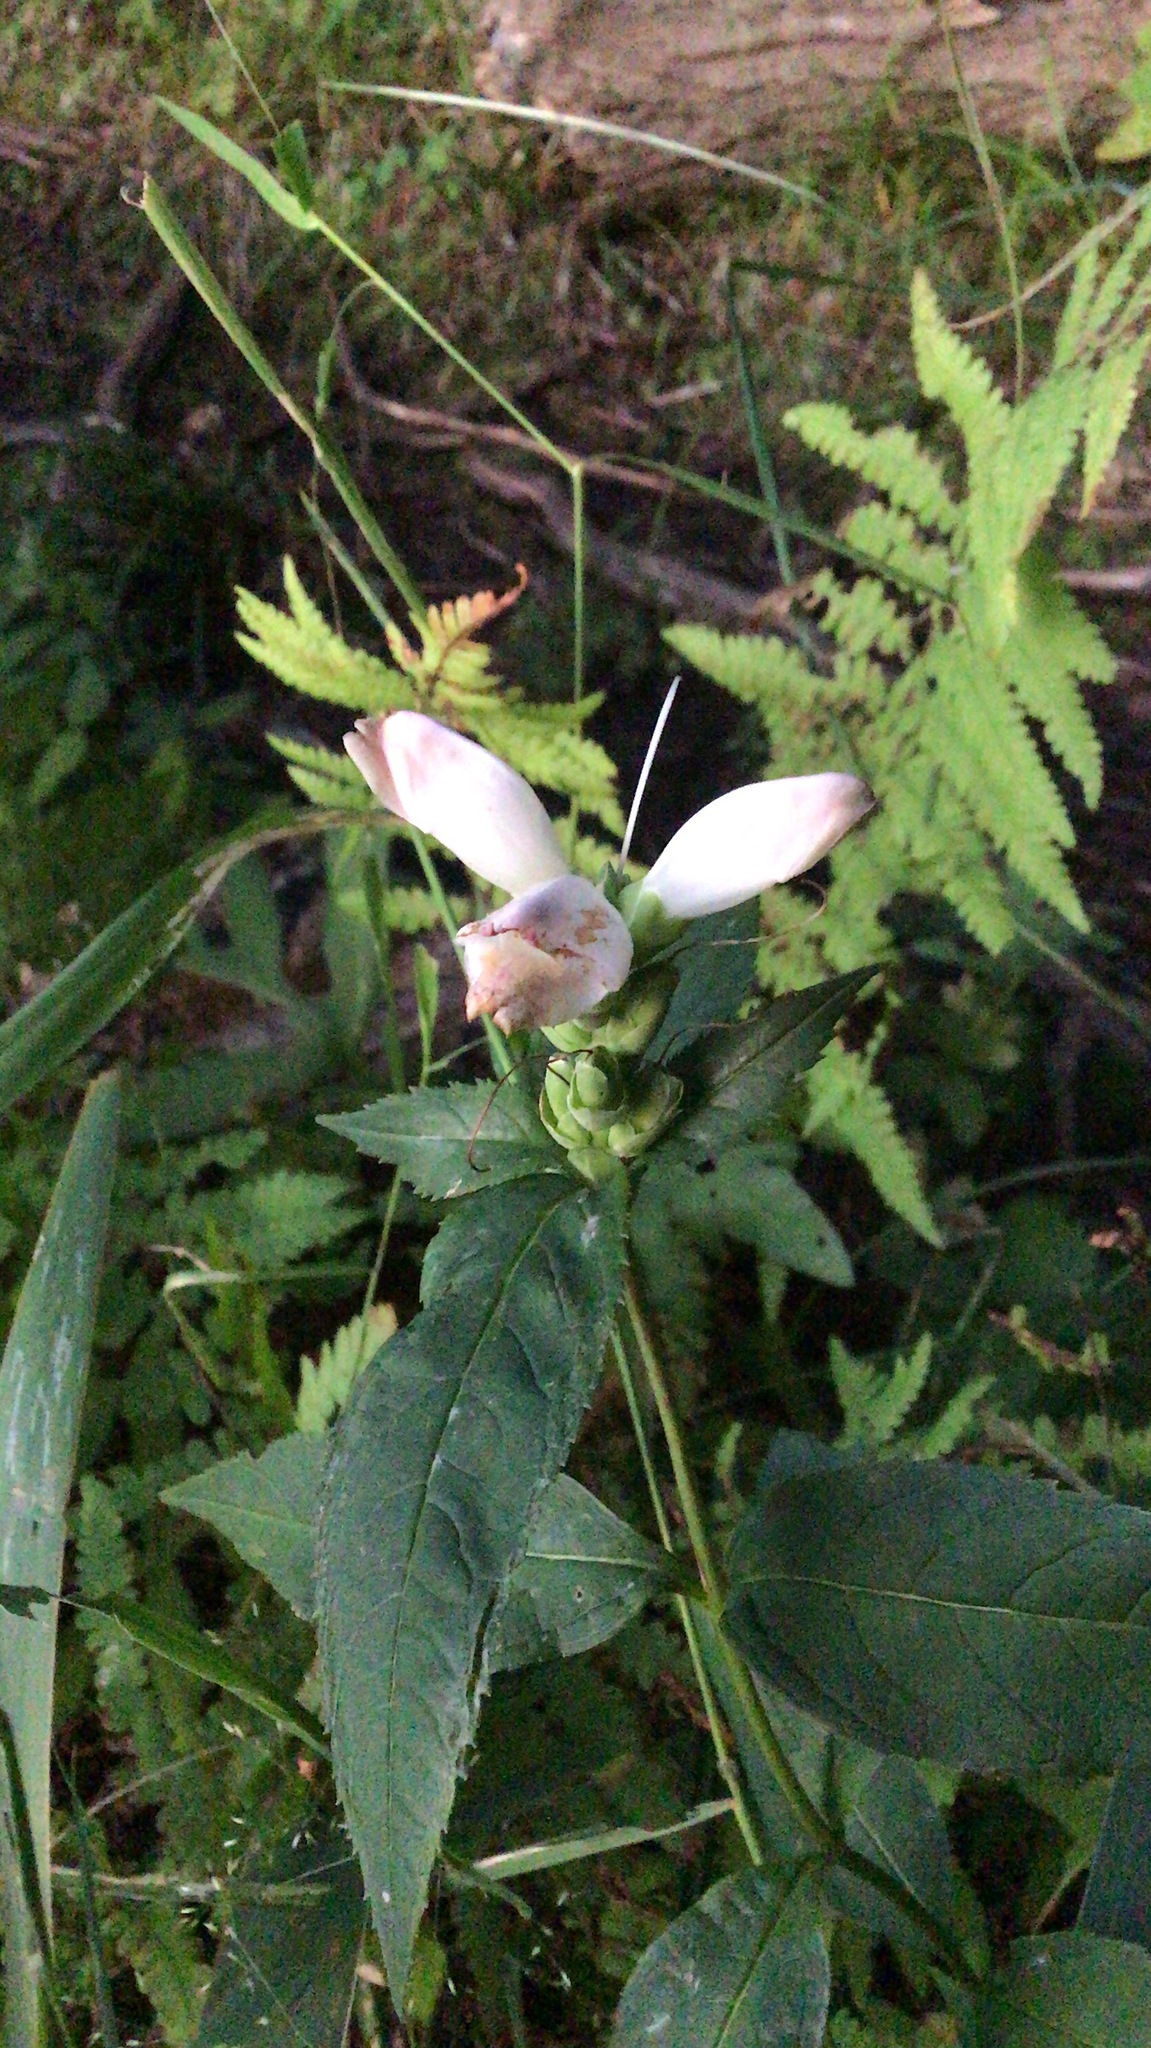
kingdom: Plantae
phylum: Tracheophyta
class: Magnoliopsida
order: Lamiales
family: Plantaginaceae
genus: Chelone
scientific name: Chelone glabra
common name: Snakehead
